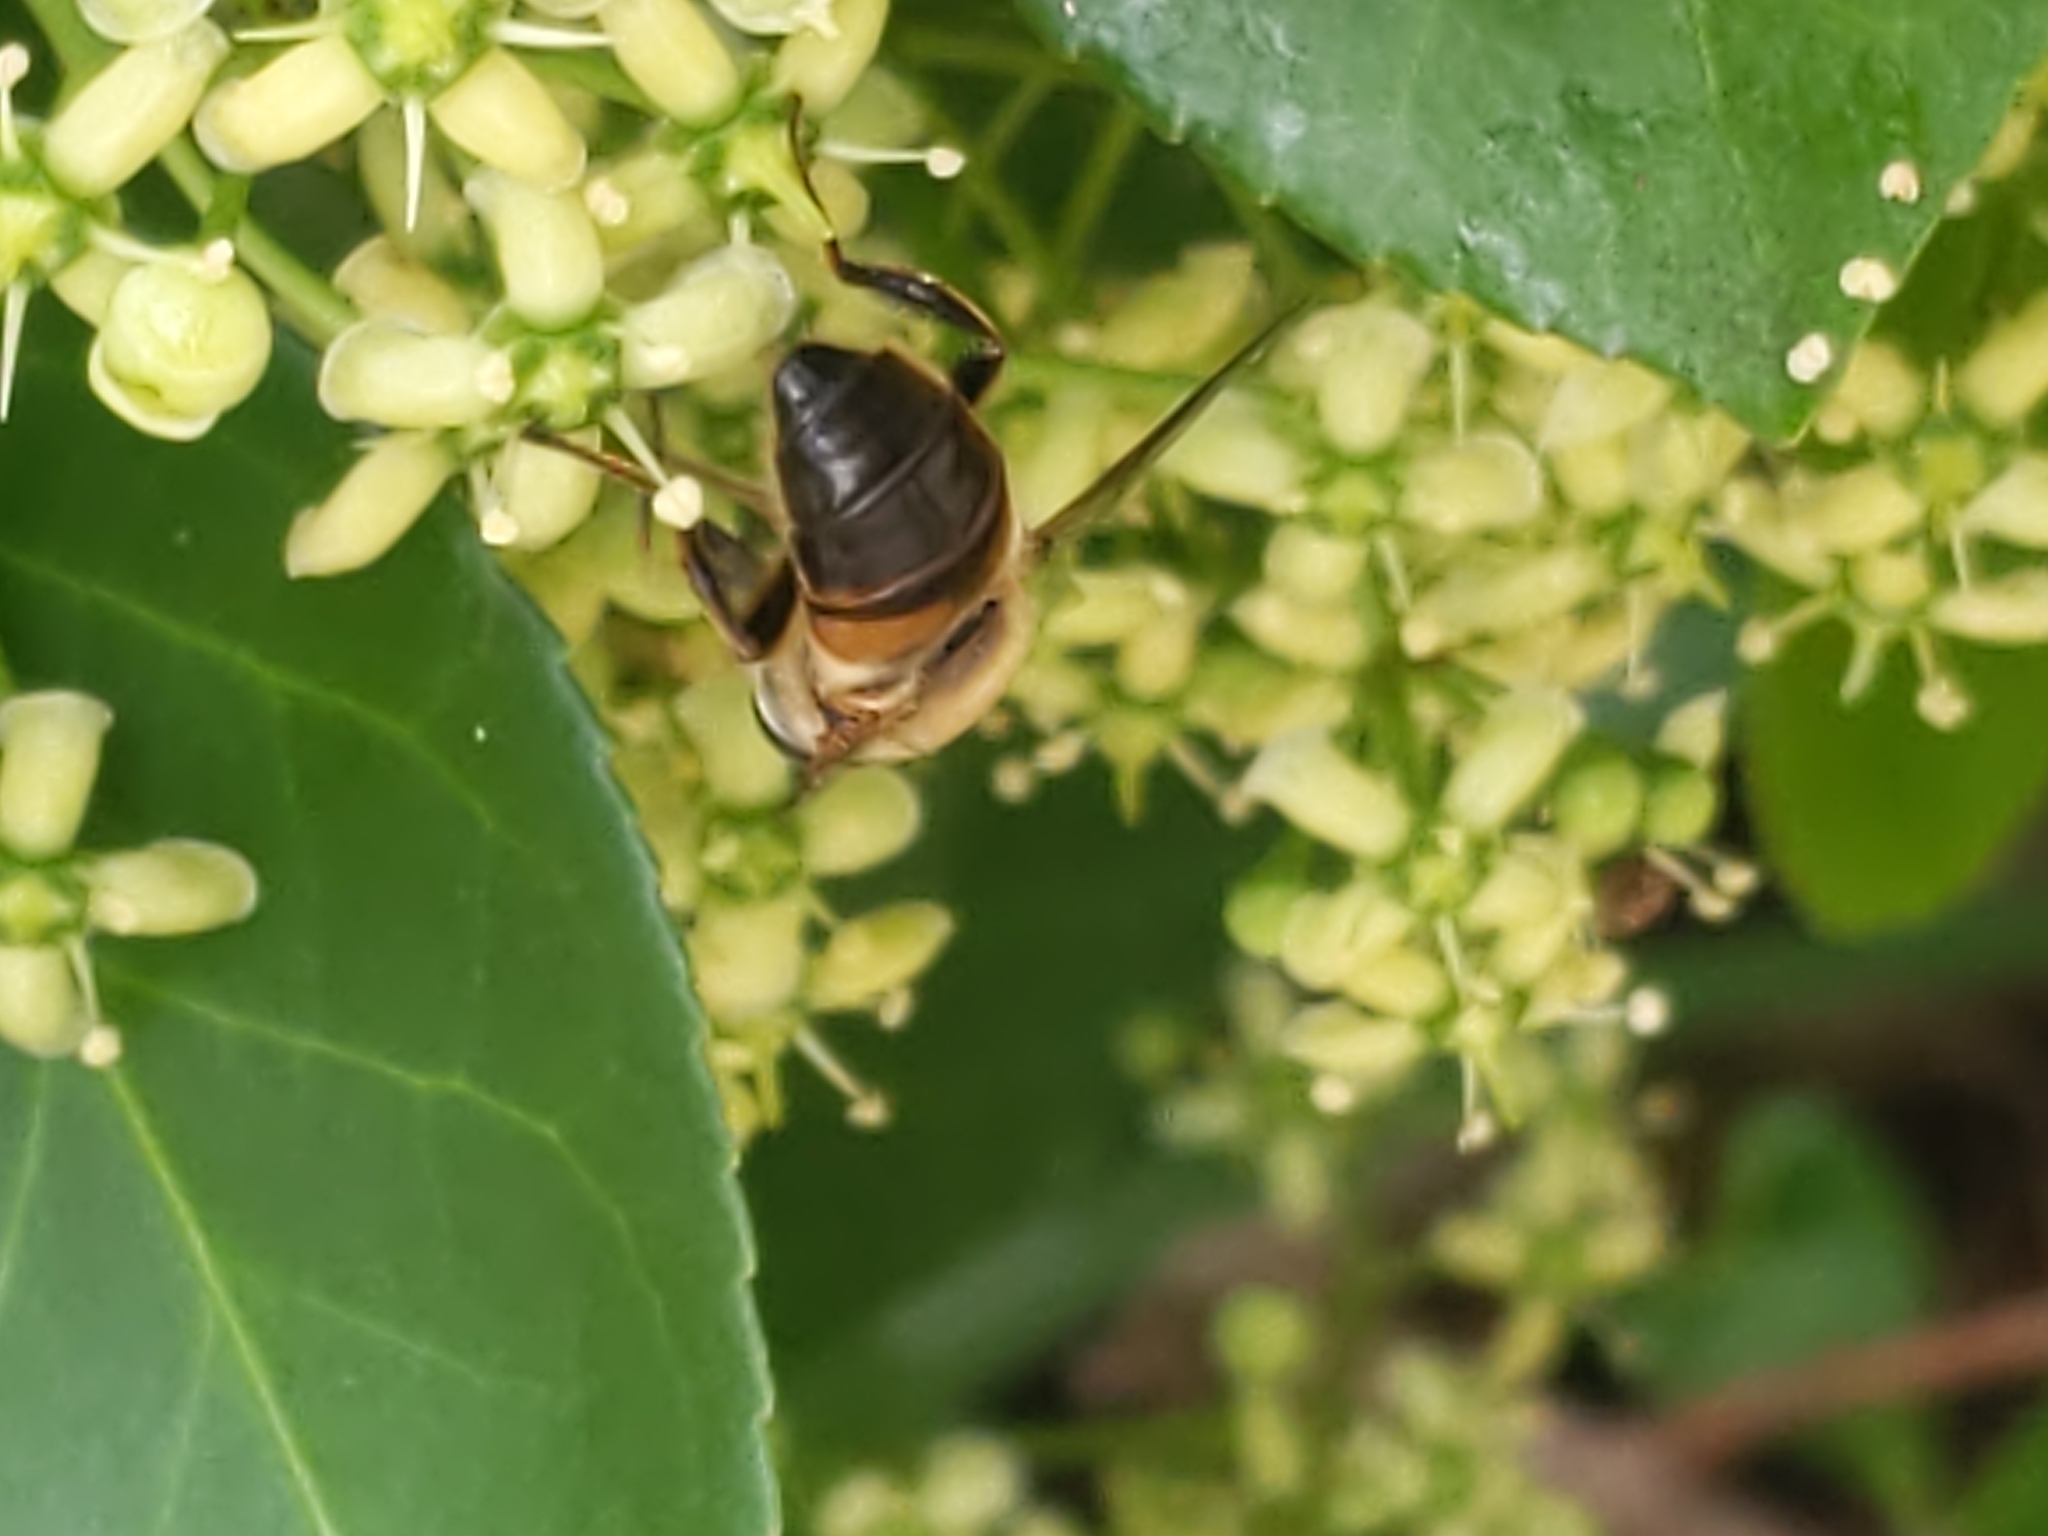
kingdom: Animalia
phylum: Arthropoda
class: Insecta
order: Diptera
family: Syrphidae
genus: Eristalis
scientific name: Eristalis tenax
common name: Drone fly
